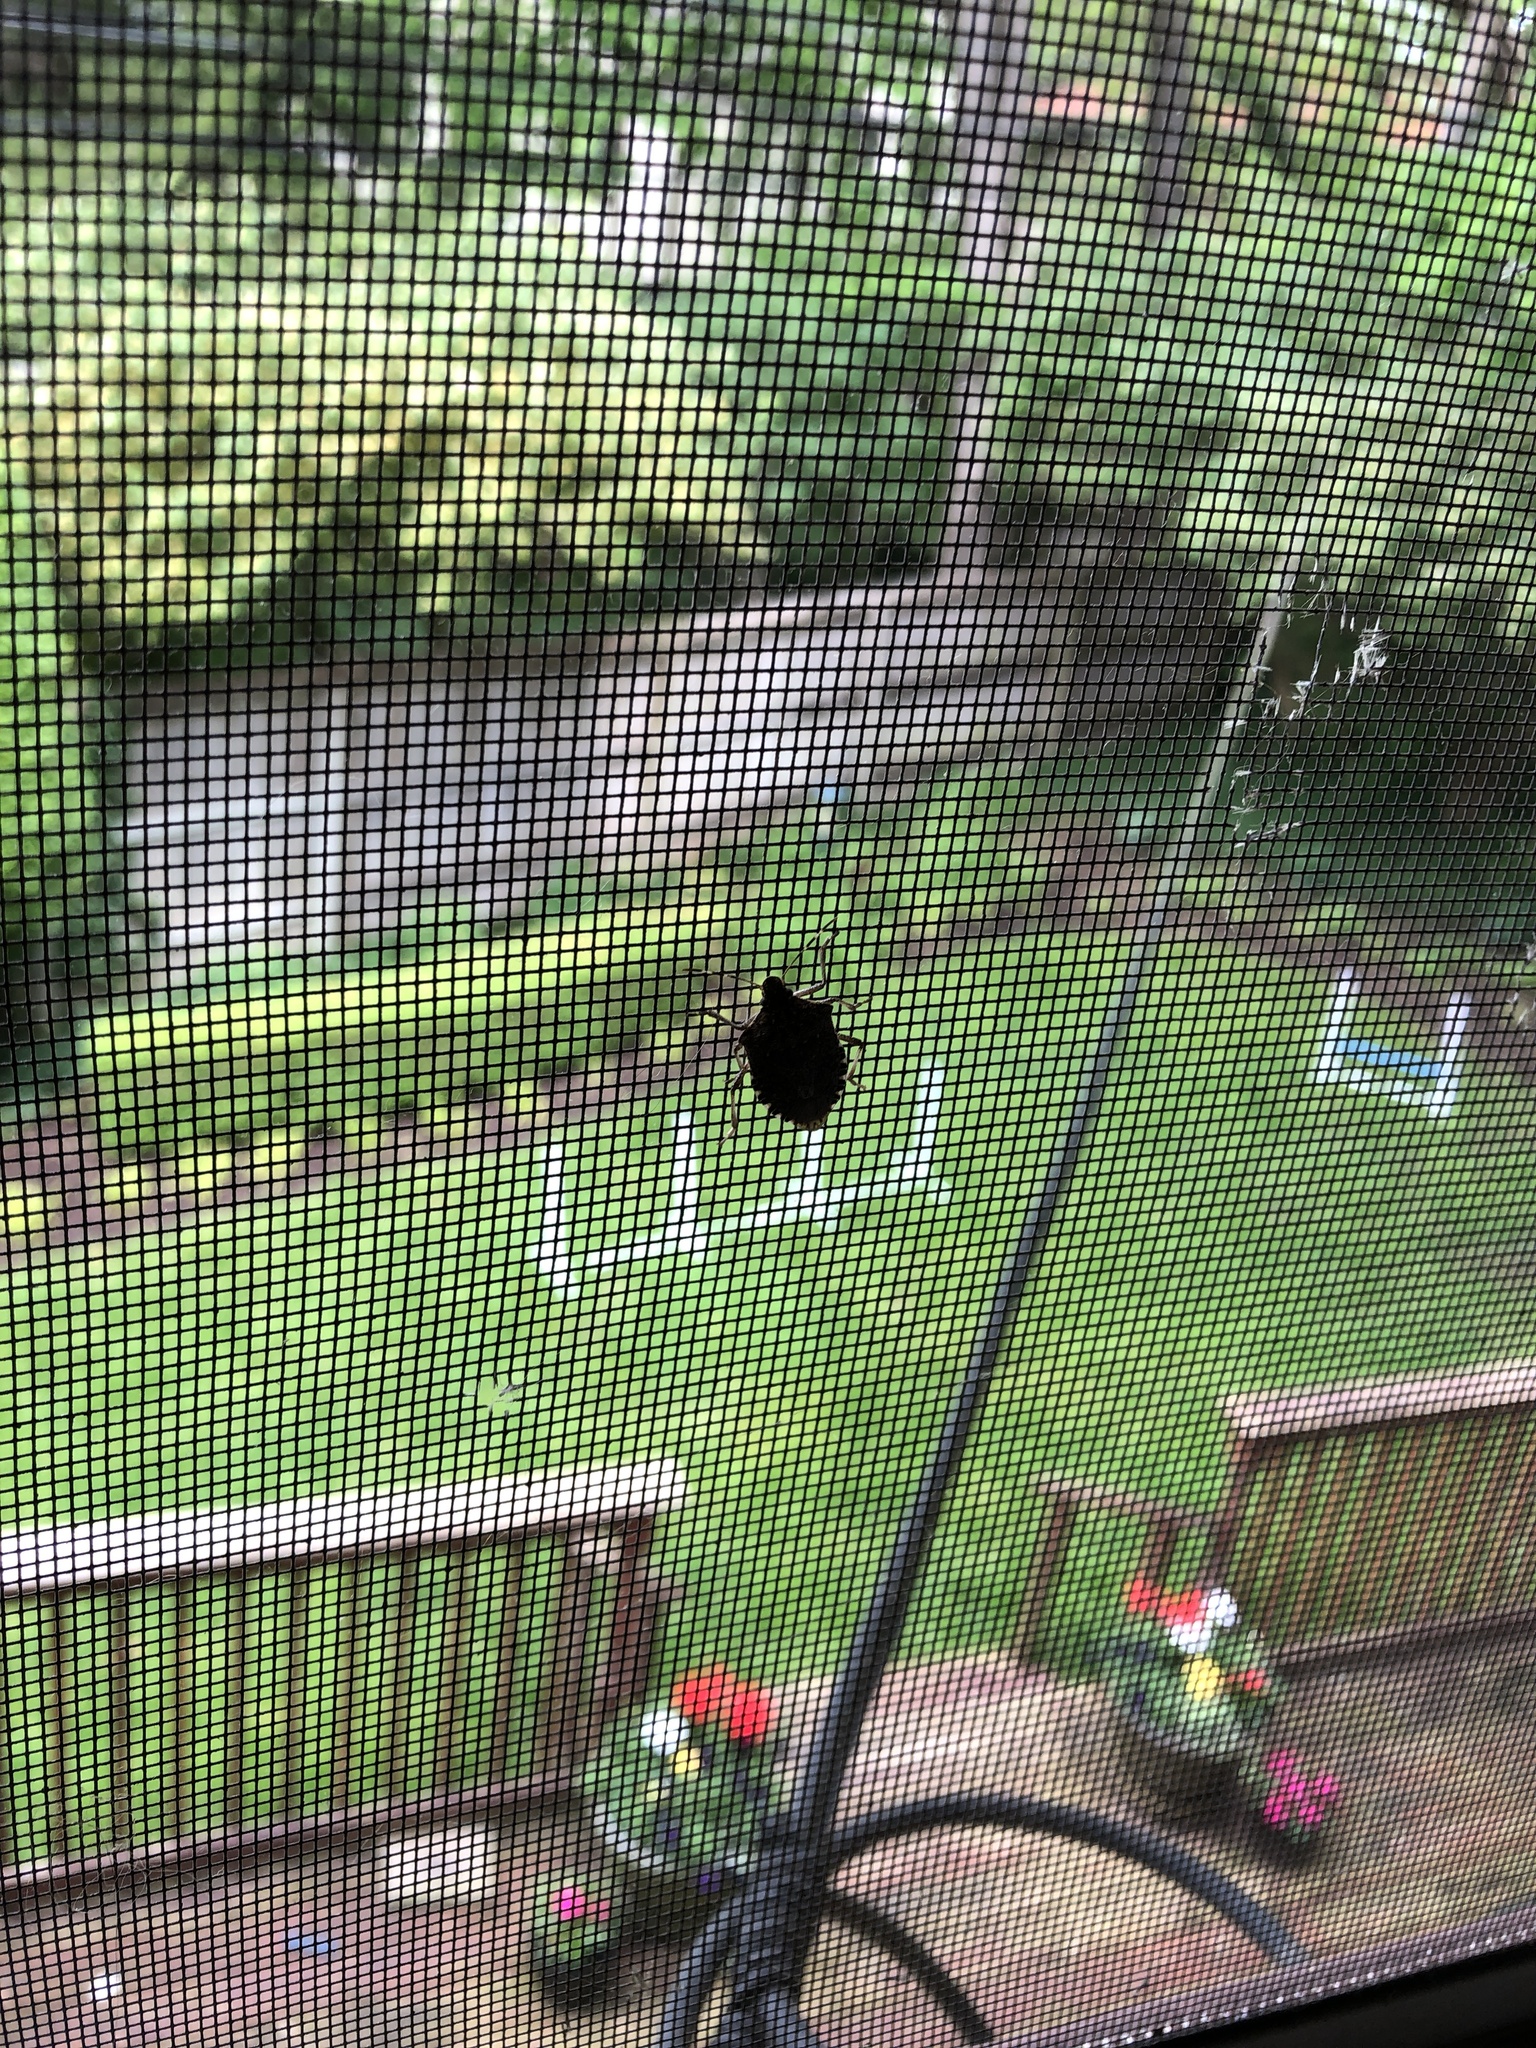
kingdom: Animalia
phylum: Arthropoda
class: Insecta
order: Hemiptera
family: Pentatomidae
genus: Halyomorpha
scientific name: Halyomorpha halys
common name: Brown marmorated stink bug
